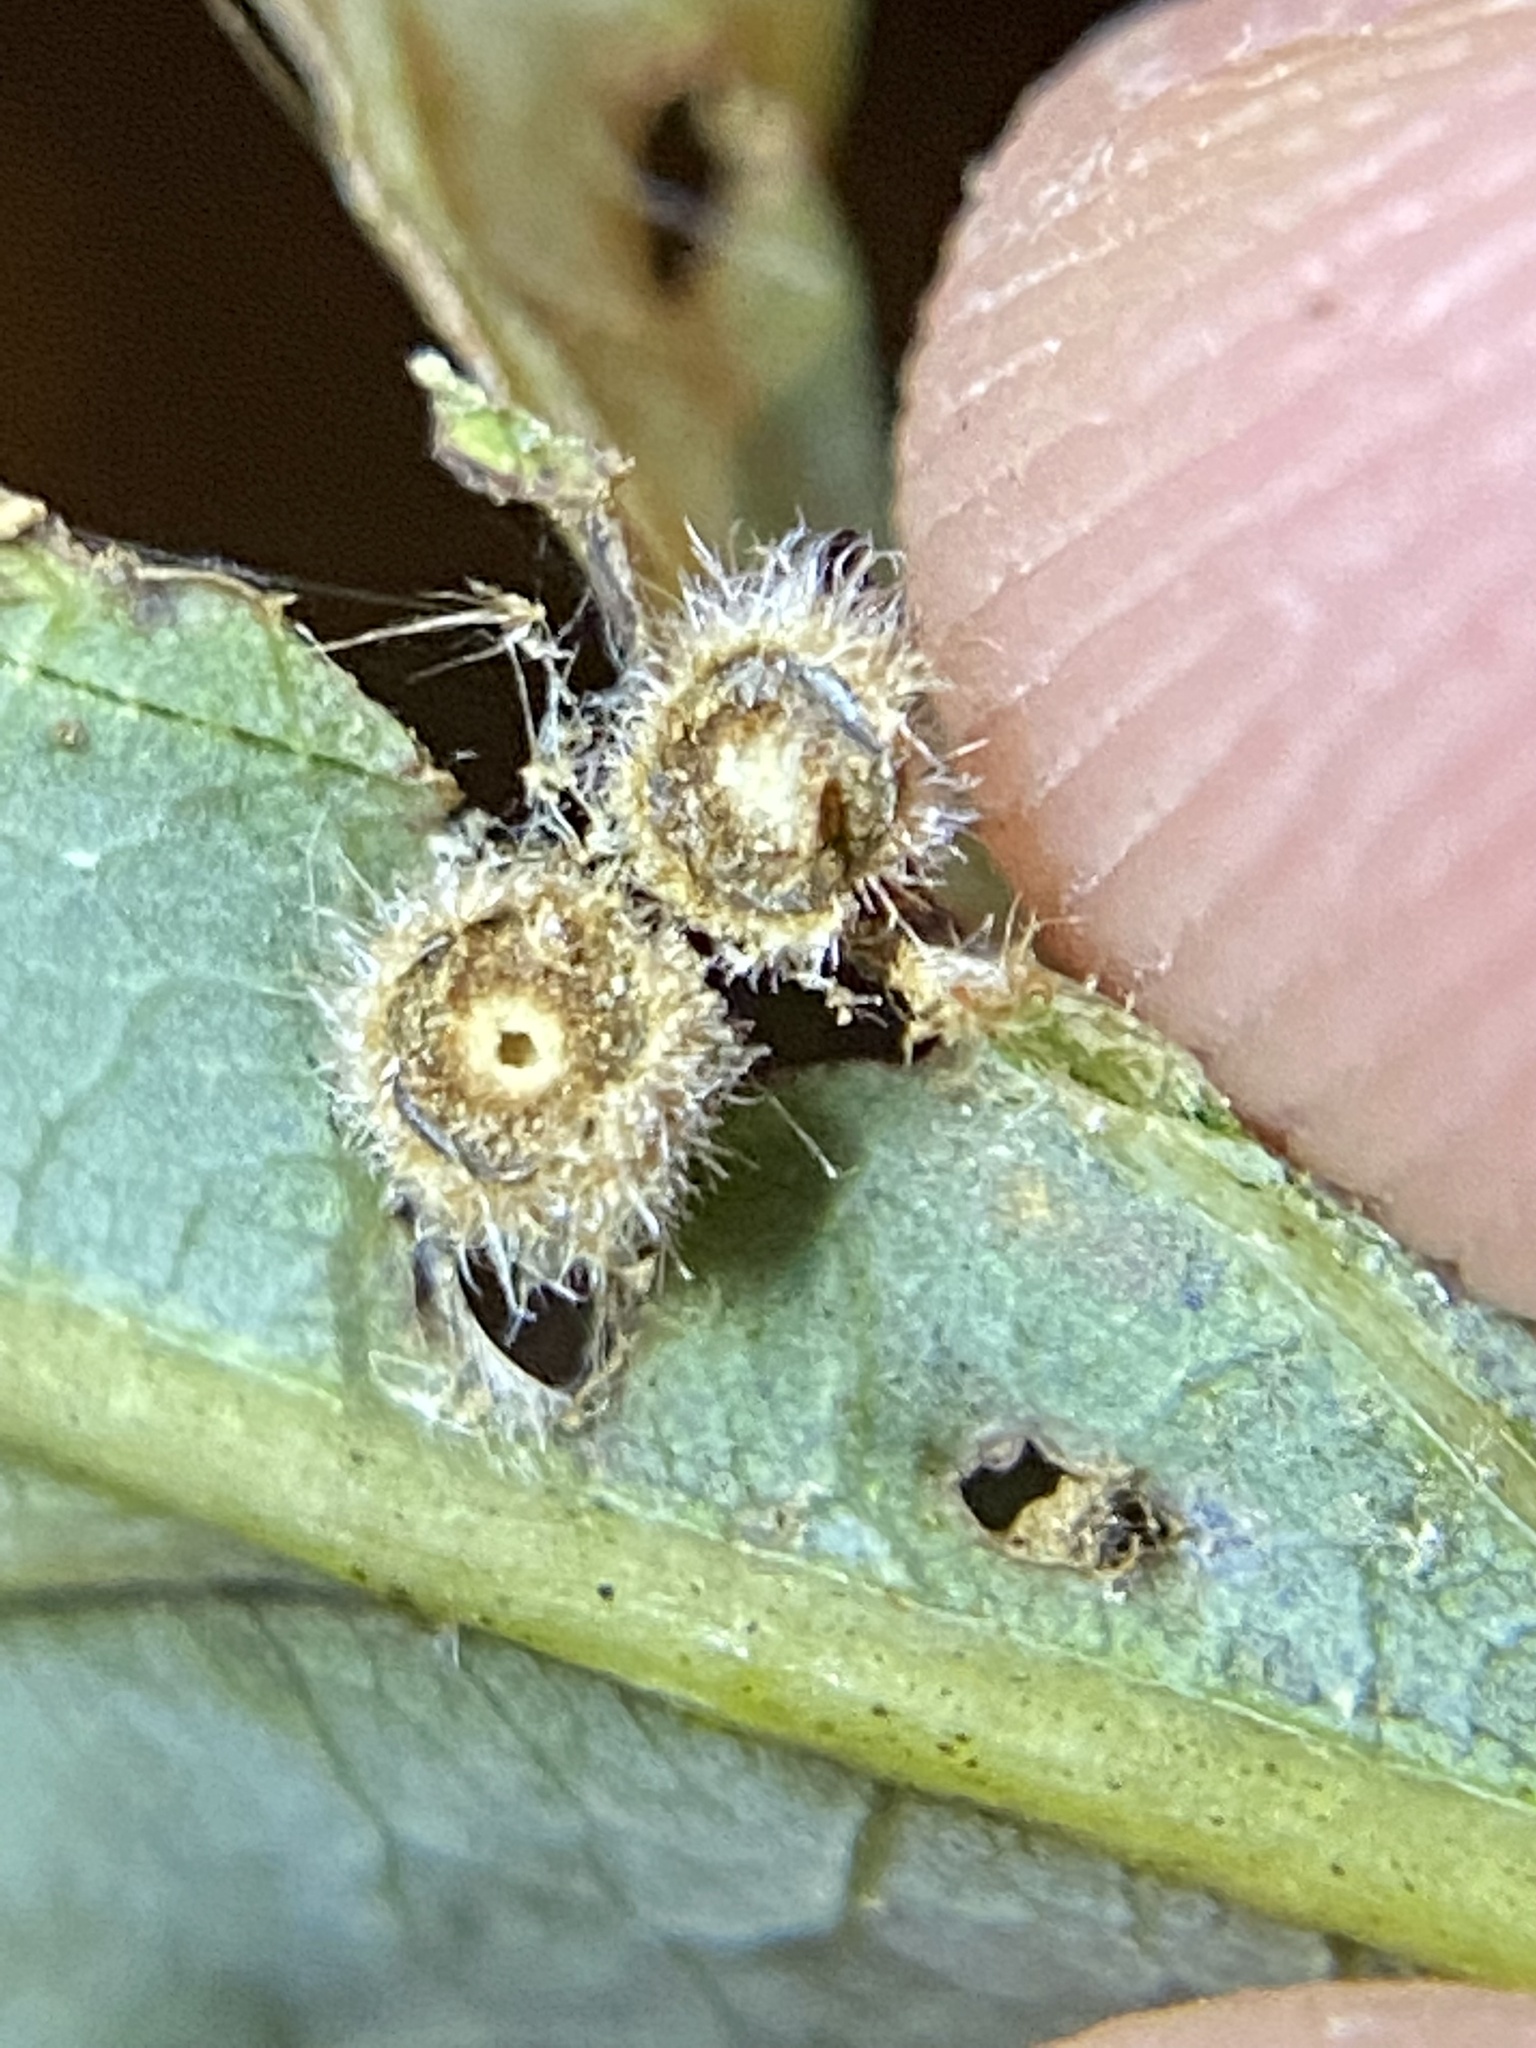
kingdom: Animalia
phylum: Arthropoda
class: Insecta
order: Hymenoptera
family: Cynipidae
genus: Philonix
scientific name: Philonix fulvicollis
